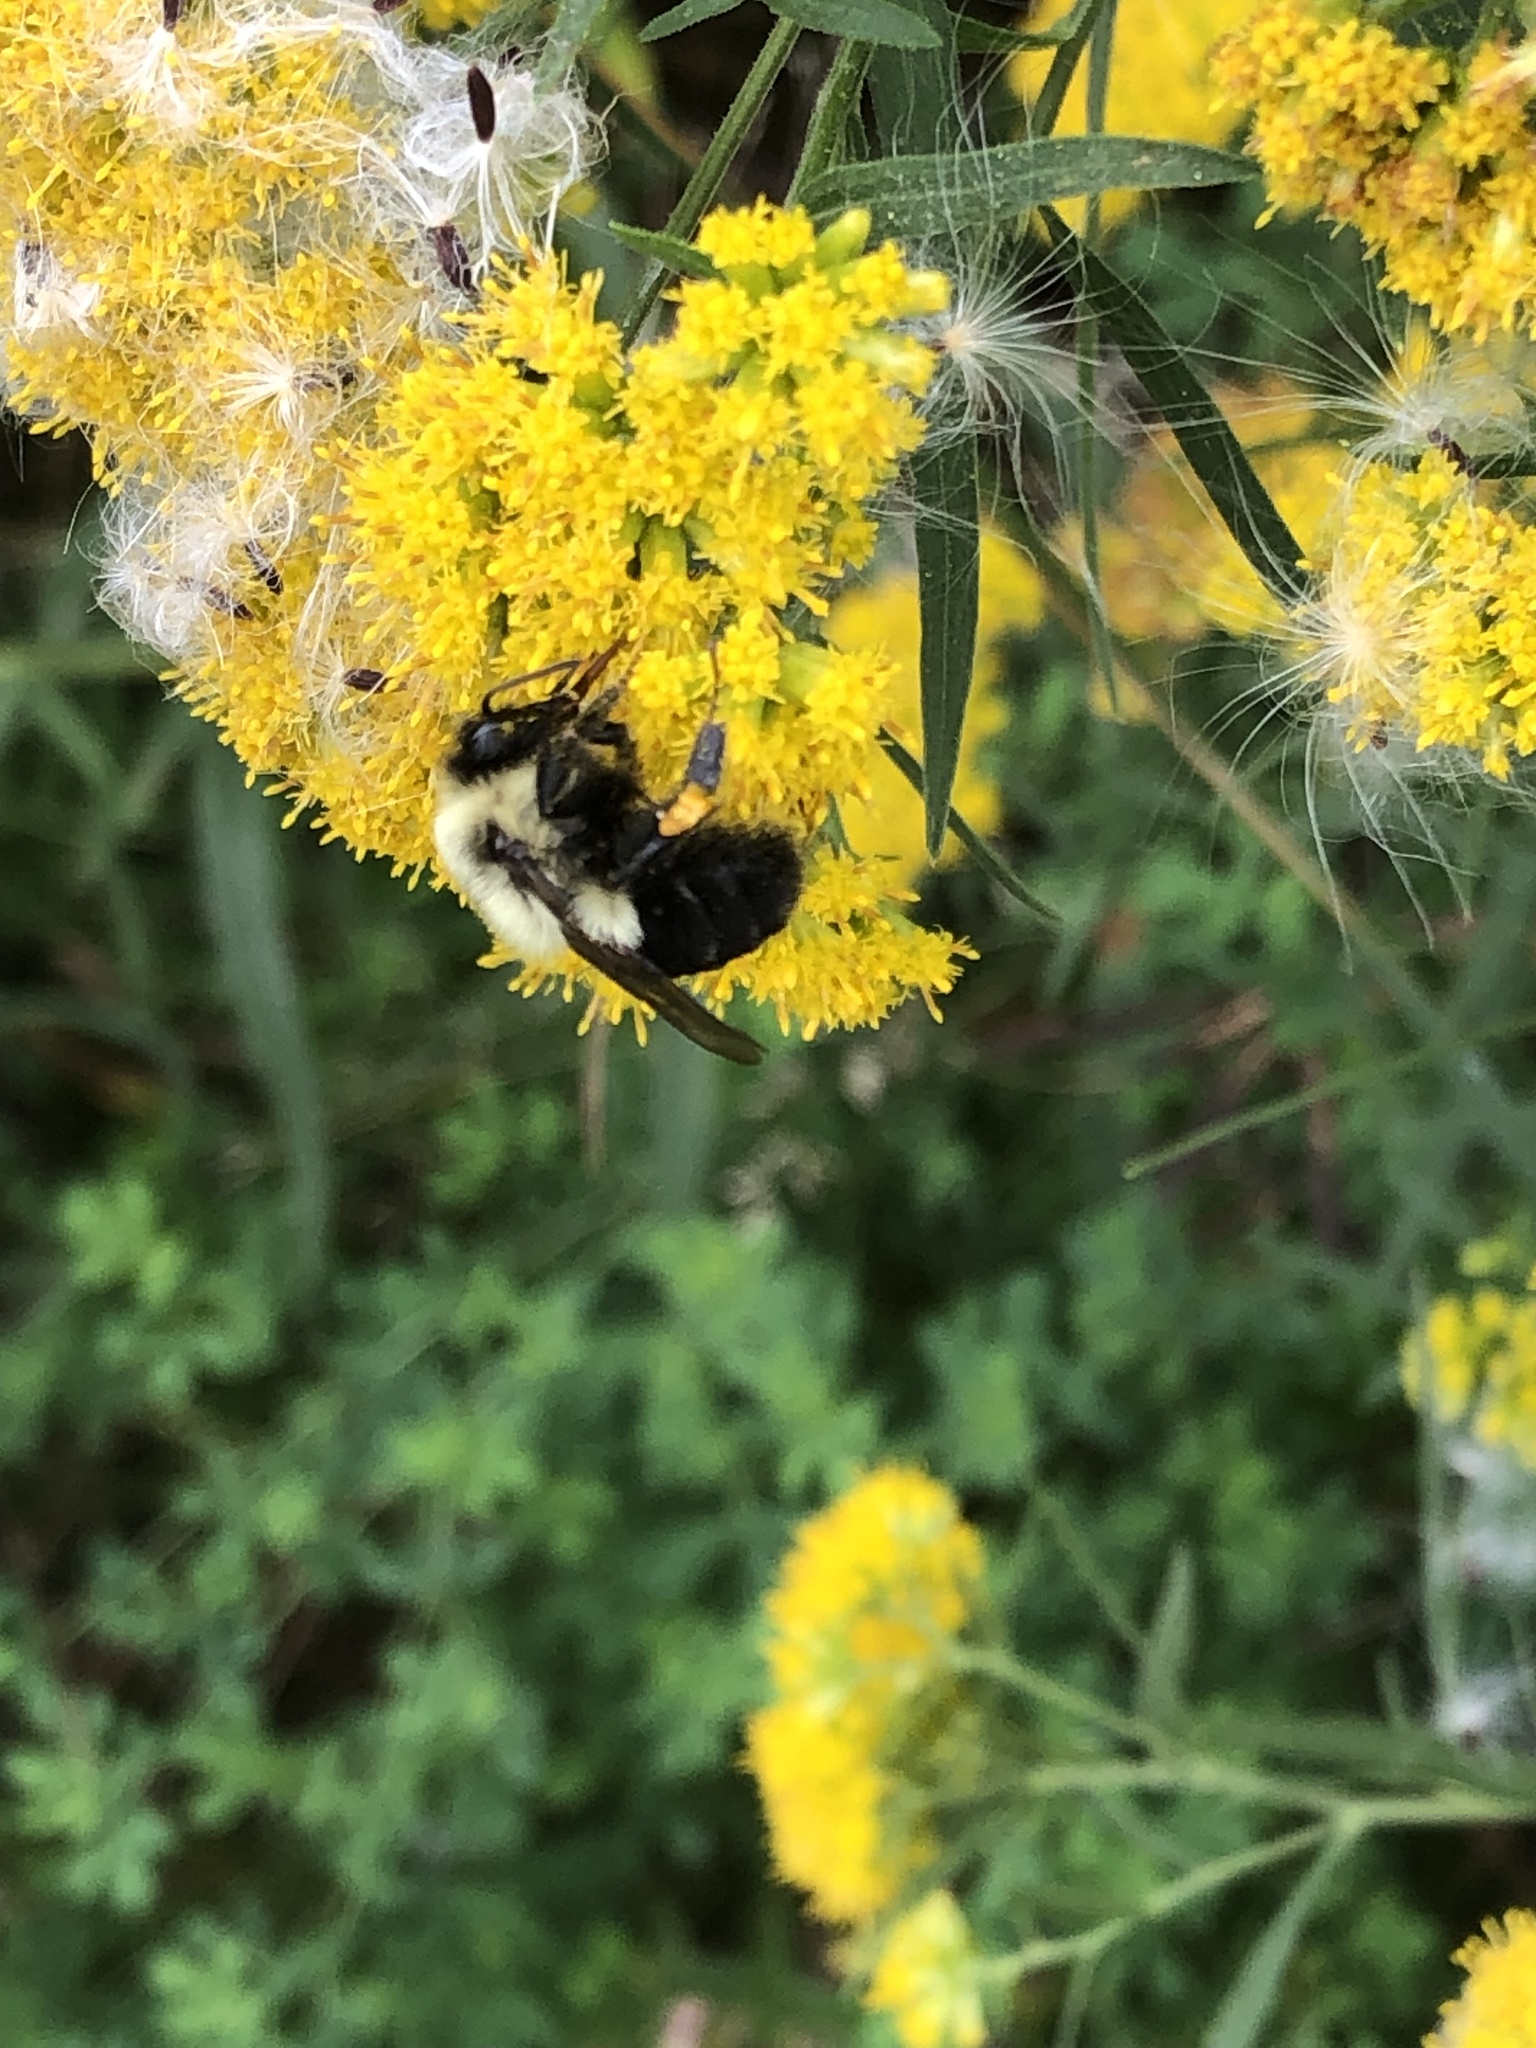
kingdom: Animalia
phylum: Arthropoda
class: Insecta
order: Hymenoptera
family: Apidae
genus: Bombus
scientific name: Bombus impatiens
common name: Common eastern bumble bee
